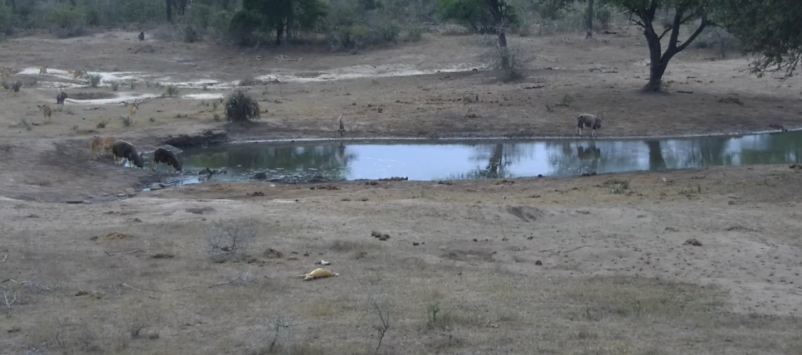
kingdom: Animalia
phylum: Chordata
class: Mammalia
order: Artiodactyla
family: Bovidae
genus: Tragelaphus
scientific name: Tragelaphus angasii
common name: Nyala
